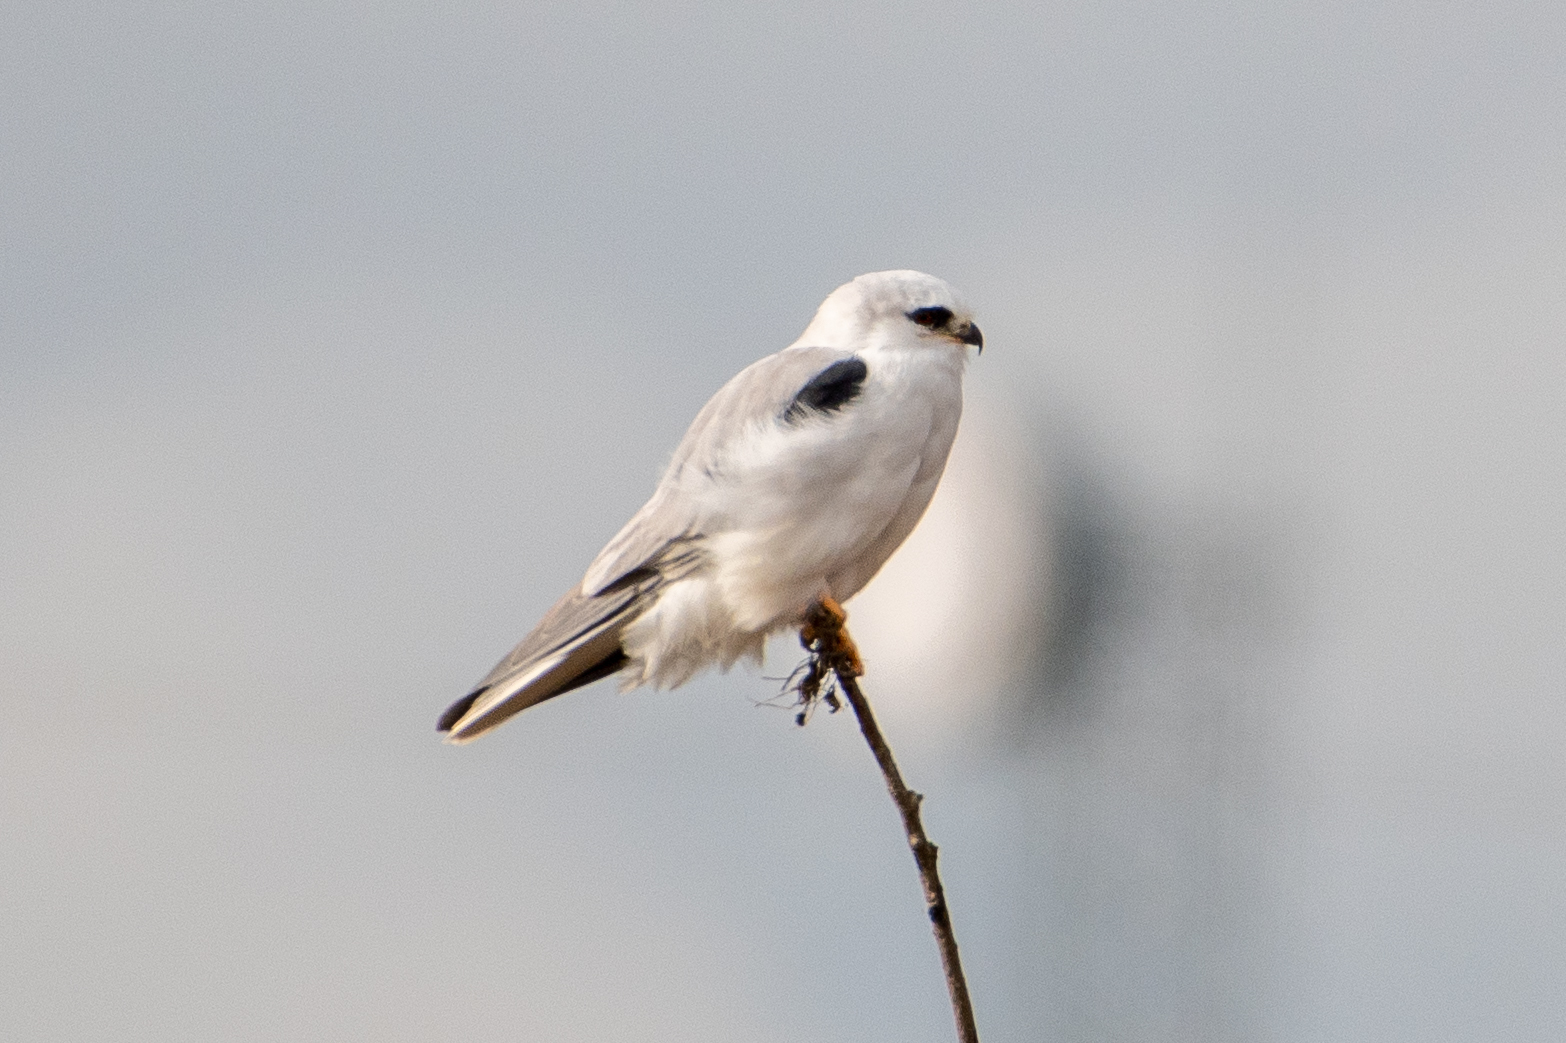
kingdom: Animalia
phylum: Chordata
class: Aves
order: Accipitriformes
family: Accipitridae
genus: Elanus
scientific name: Elanus leucurus
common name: White-tailed kite
